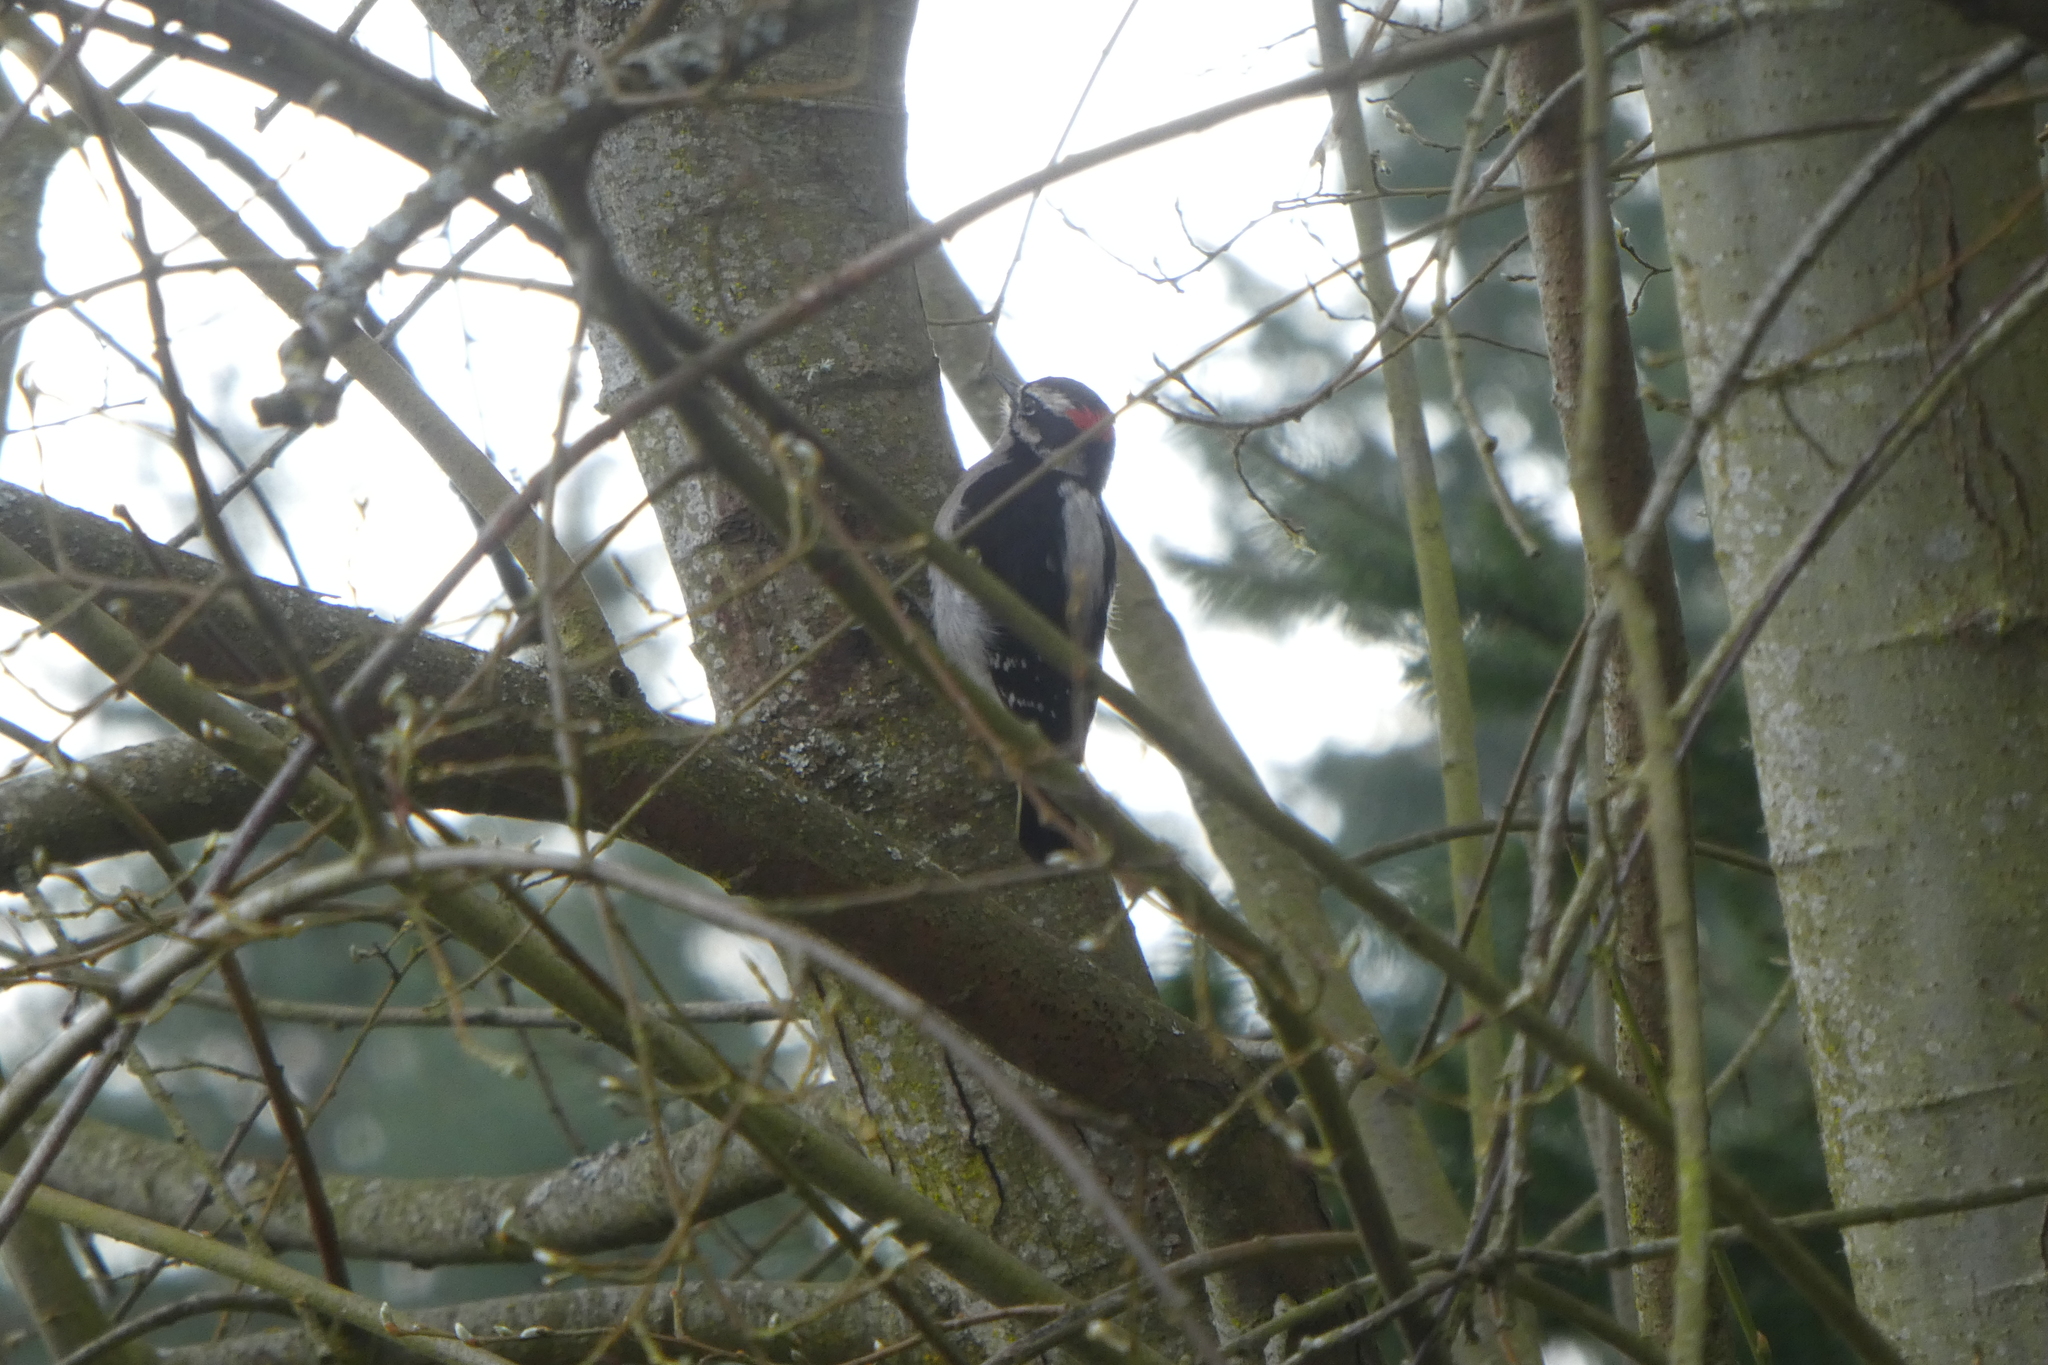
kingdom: Animalia
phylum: Chordata
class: Aves
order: Piciformes
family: Picidae
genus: Leuconotopicus
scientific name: Leuconotopicus villosus
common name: Hairy woodpecker
